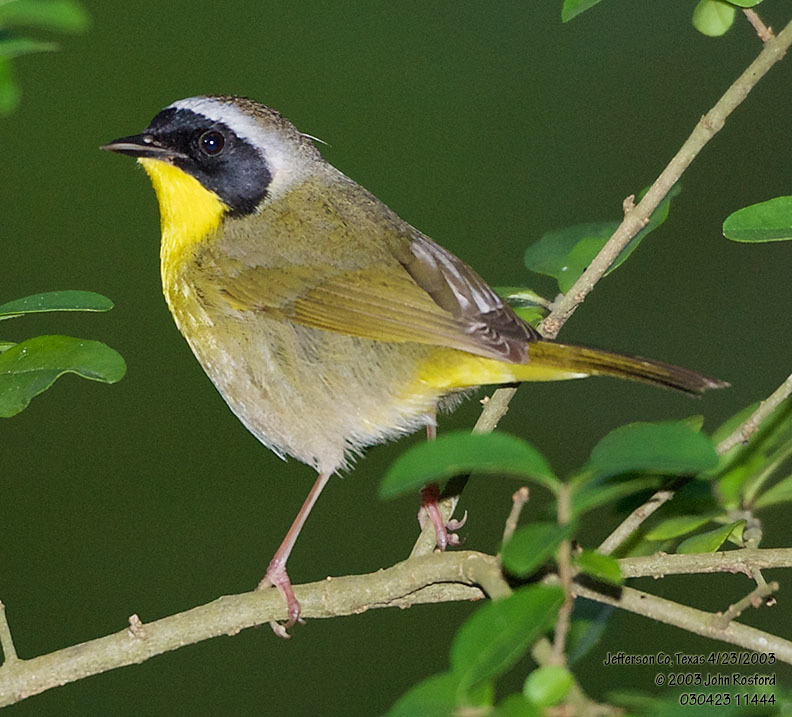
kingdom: Animalia
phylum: Chordata
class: Aves
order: Passeriformes
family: Parulidae
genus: Geothlypis
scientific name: Geothlypis trichas
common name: Common yellowthroat
